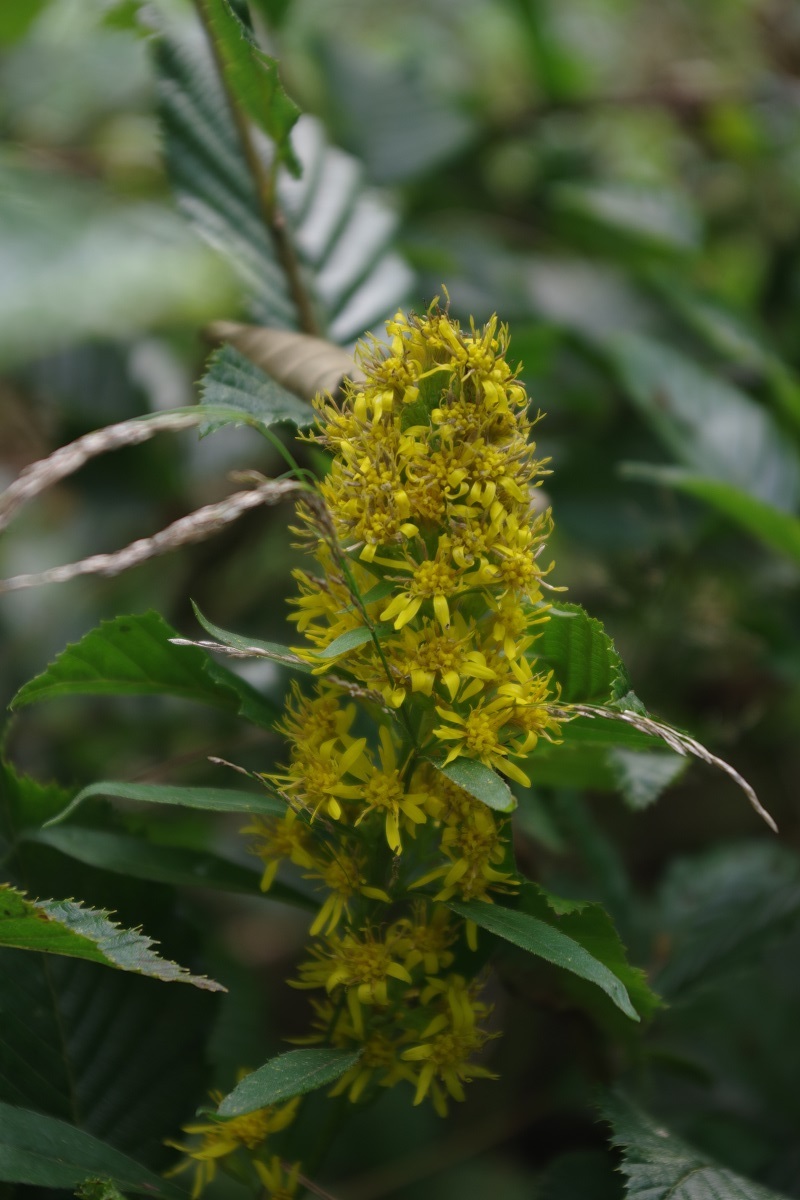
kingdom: Plantae
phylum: Tracheophyta
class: Magnoliopsida
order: Asterales
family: Asteraceae
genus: Solidago
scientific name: Solidago virgaurea
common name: Goldenrod
